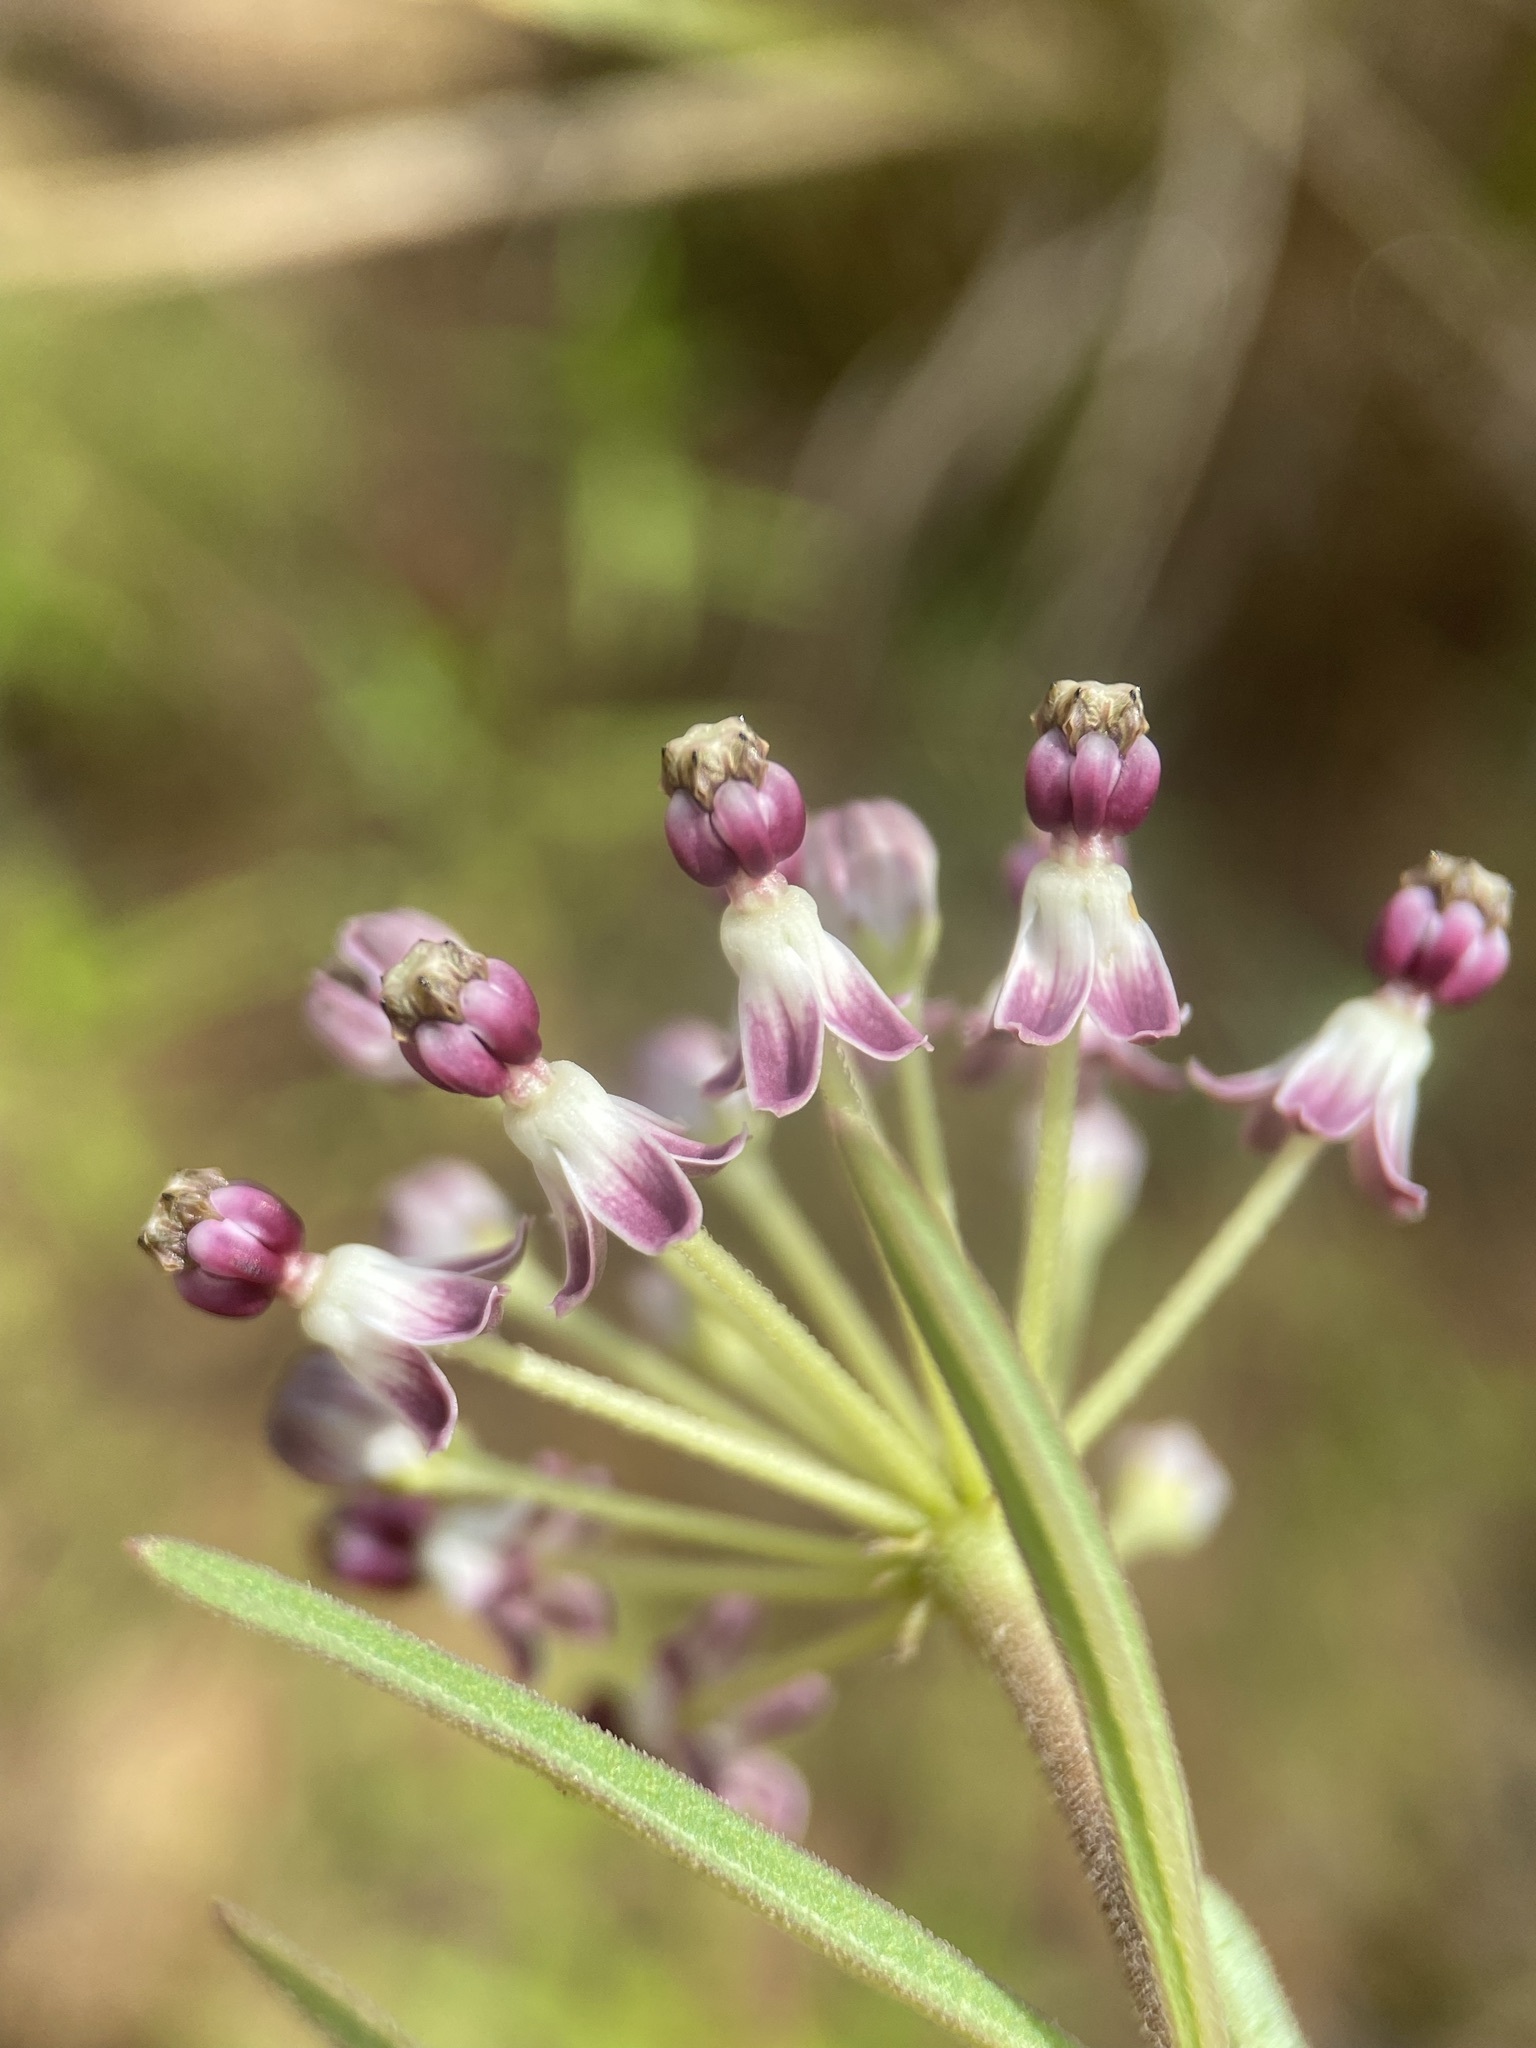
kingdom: Plantae
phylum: Tracheophyta
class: Magnoliopsida
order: Gentianales
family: Apocynaceae
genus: Asclepias
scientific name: Asclepias longifolia
